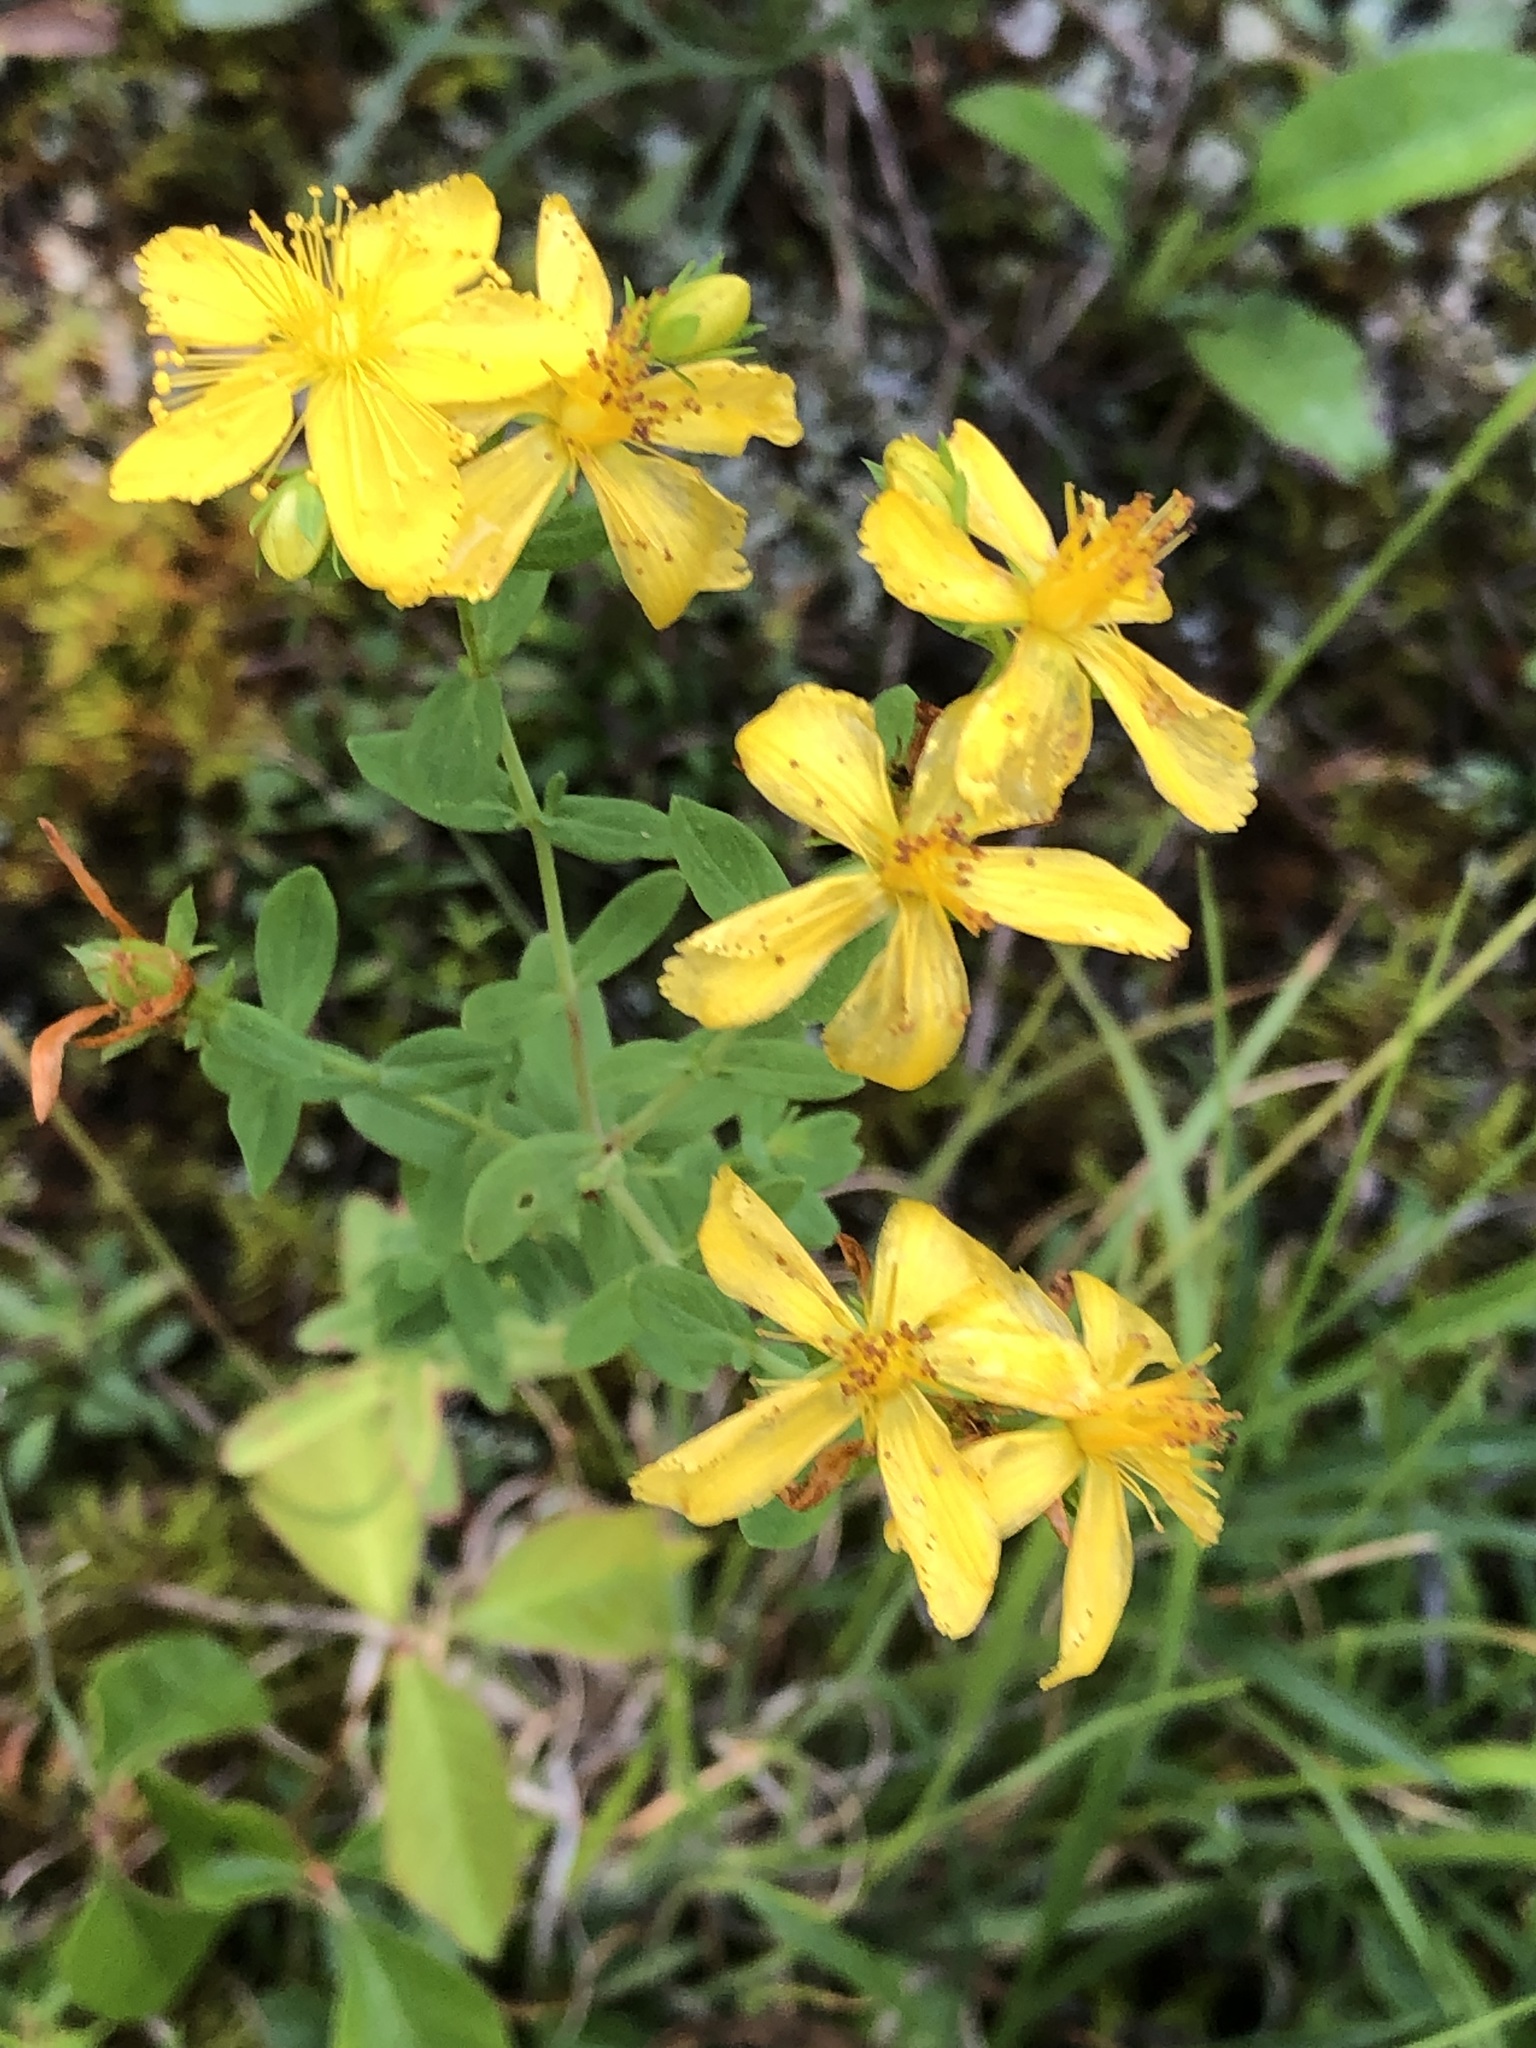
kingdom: Plantae
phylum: Tracheophyta
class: Magnoliopsida
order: Malpighiales
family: Hypericaceae
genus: Hypericum
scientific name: Hypericum perforatum
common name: Common st. johnswort
